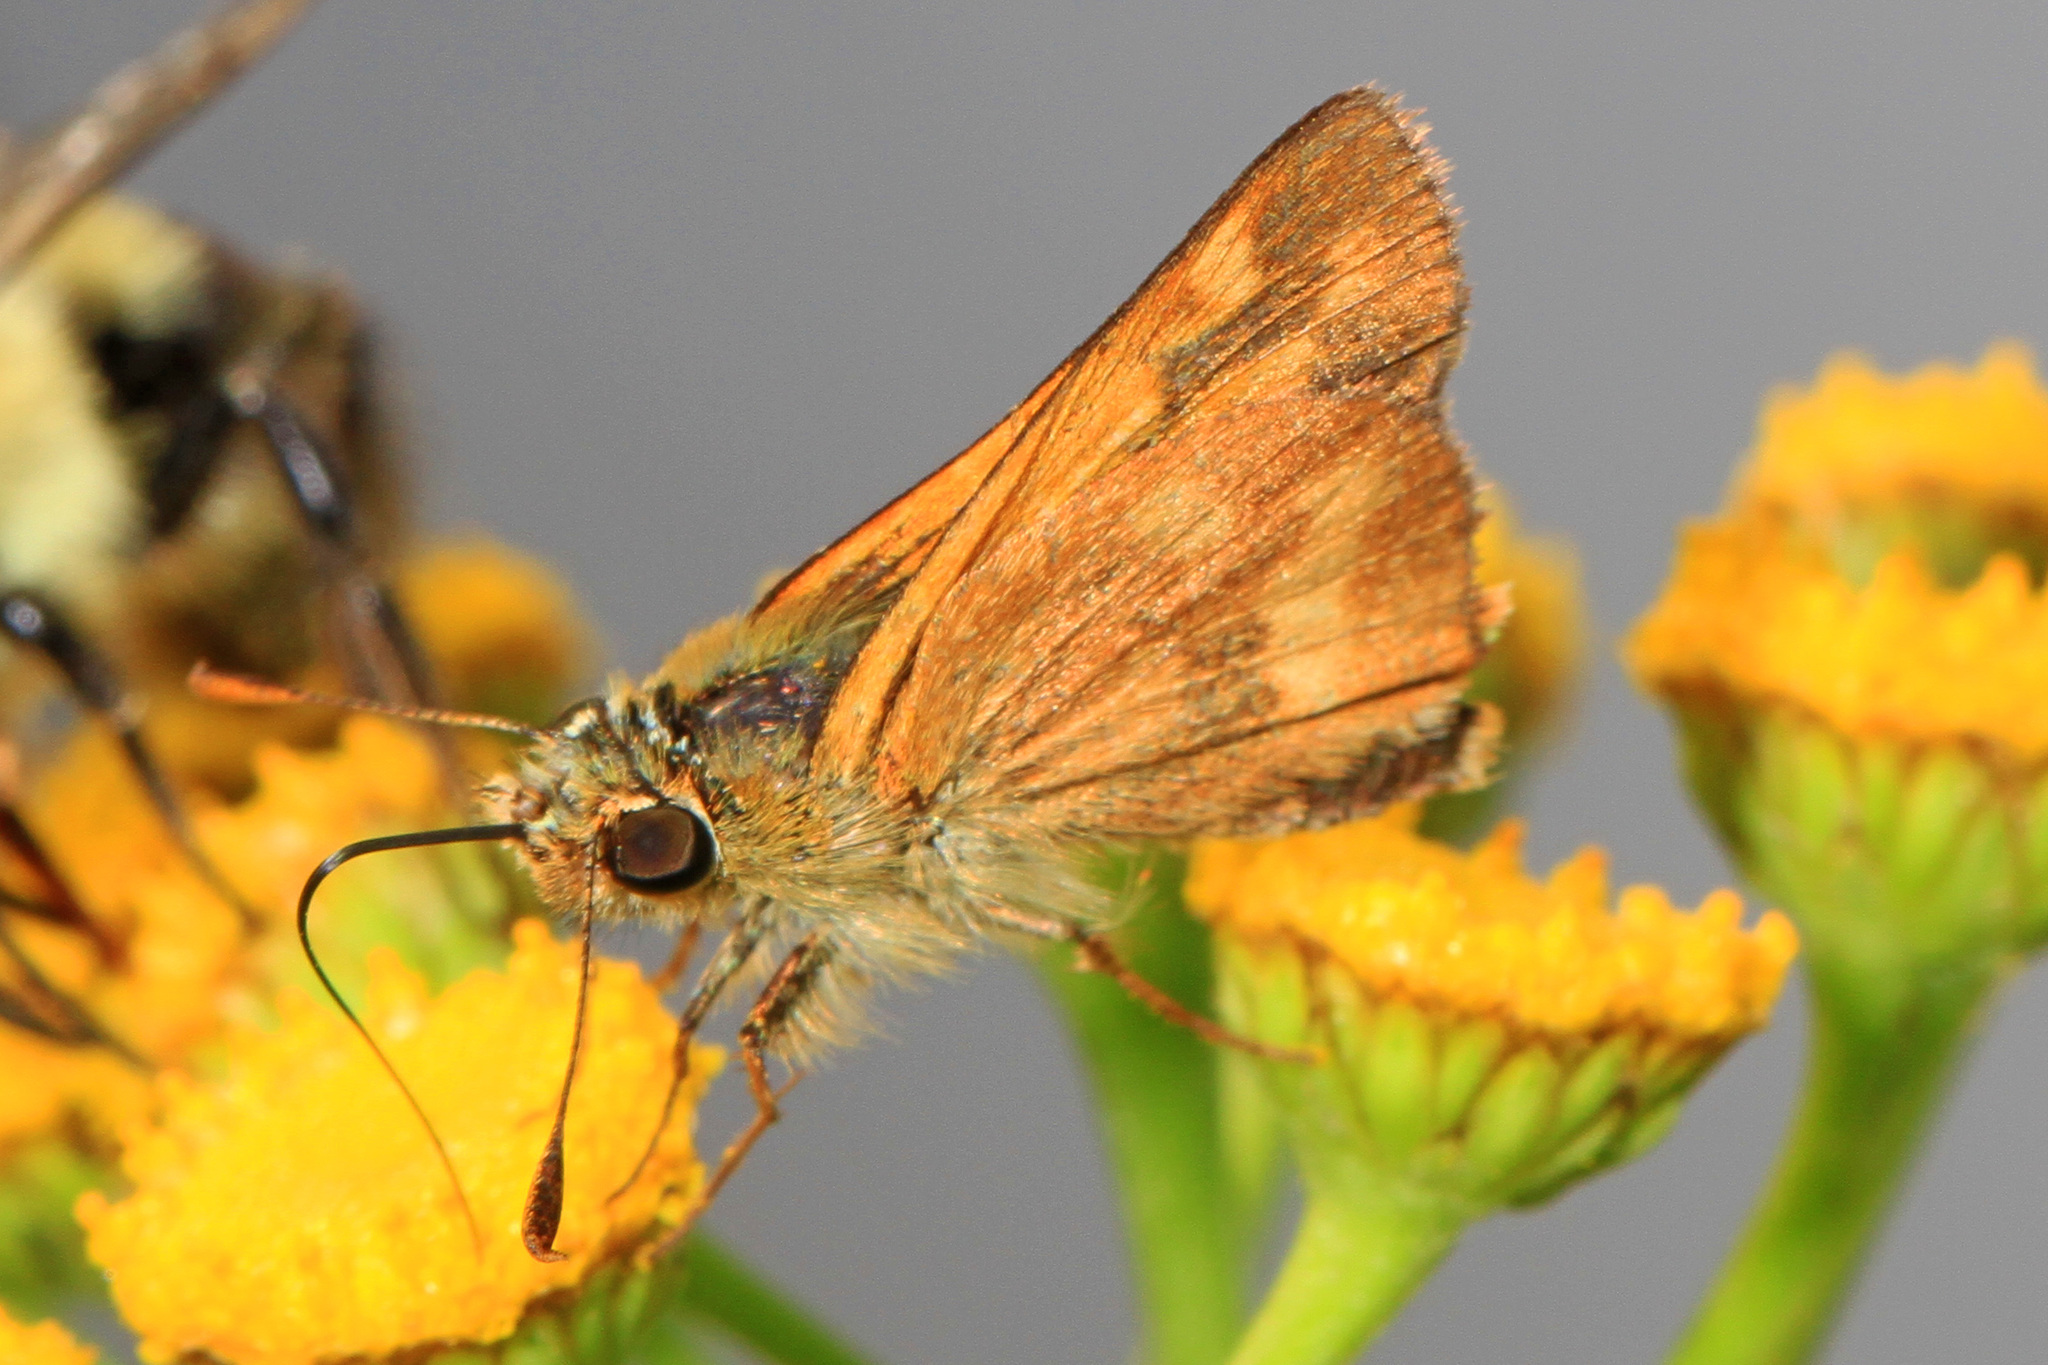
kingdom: Animalia
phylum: Arthropoda
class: Insecta
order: Lepidoptera
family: Hesperiidae
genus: Ochlodes
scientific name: Ochlodes sylvanoides
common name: Woodland skipper
